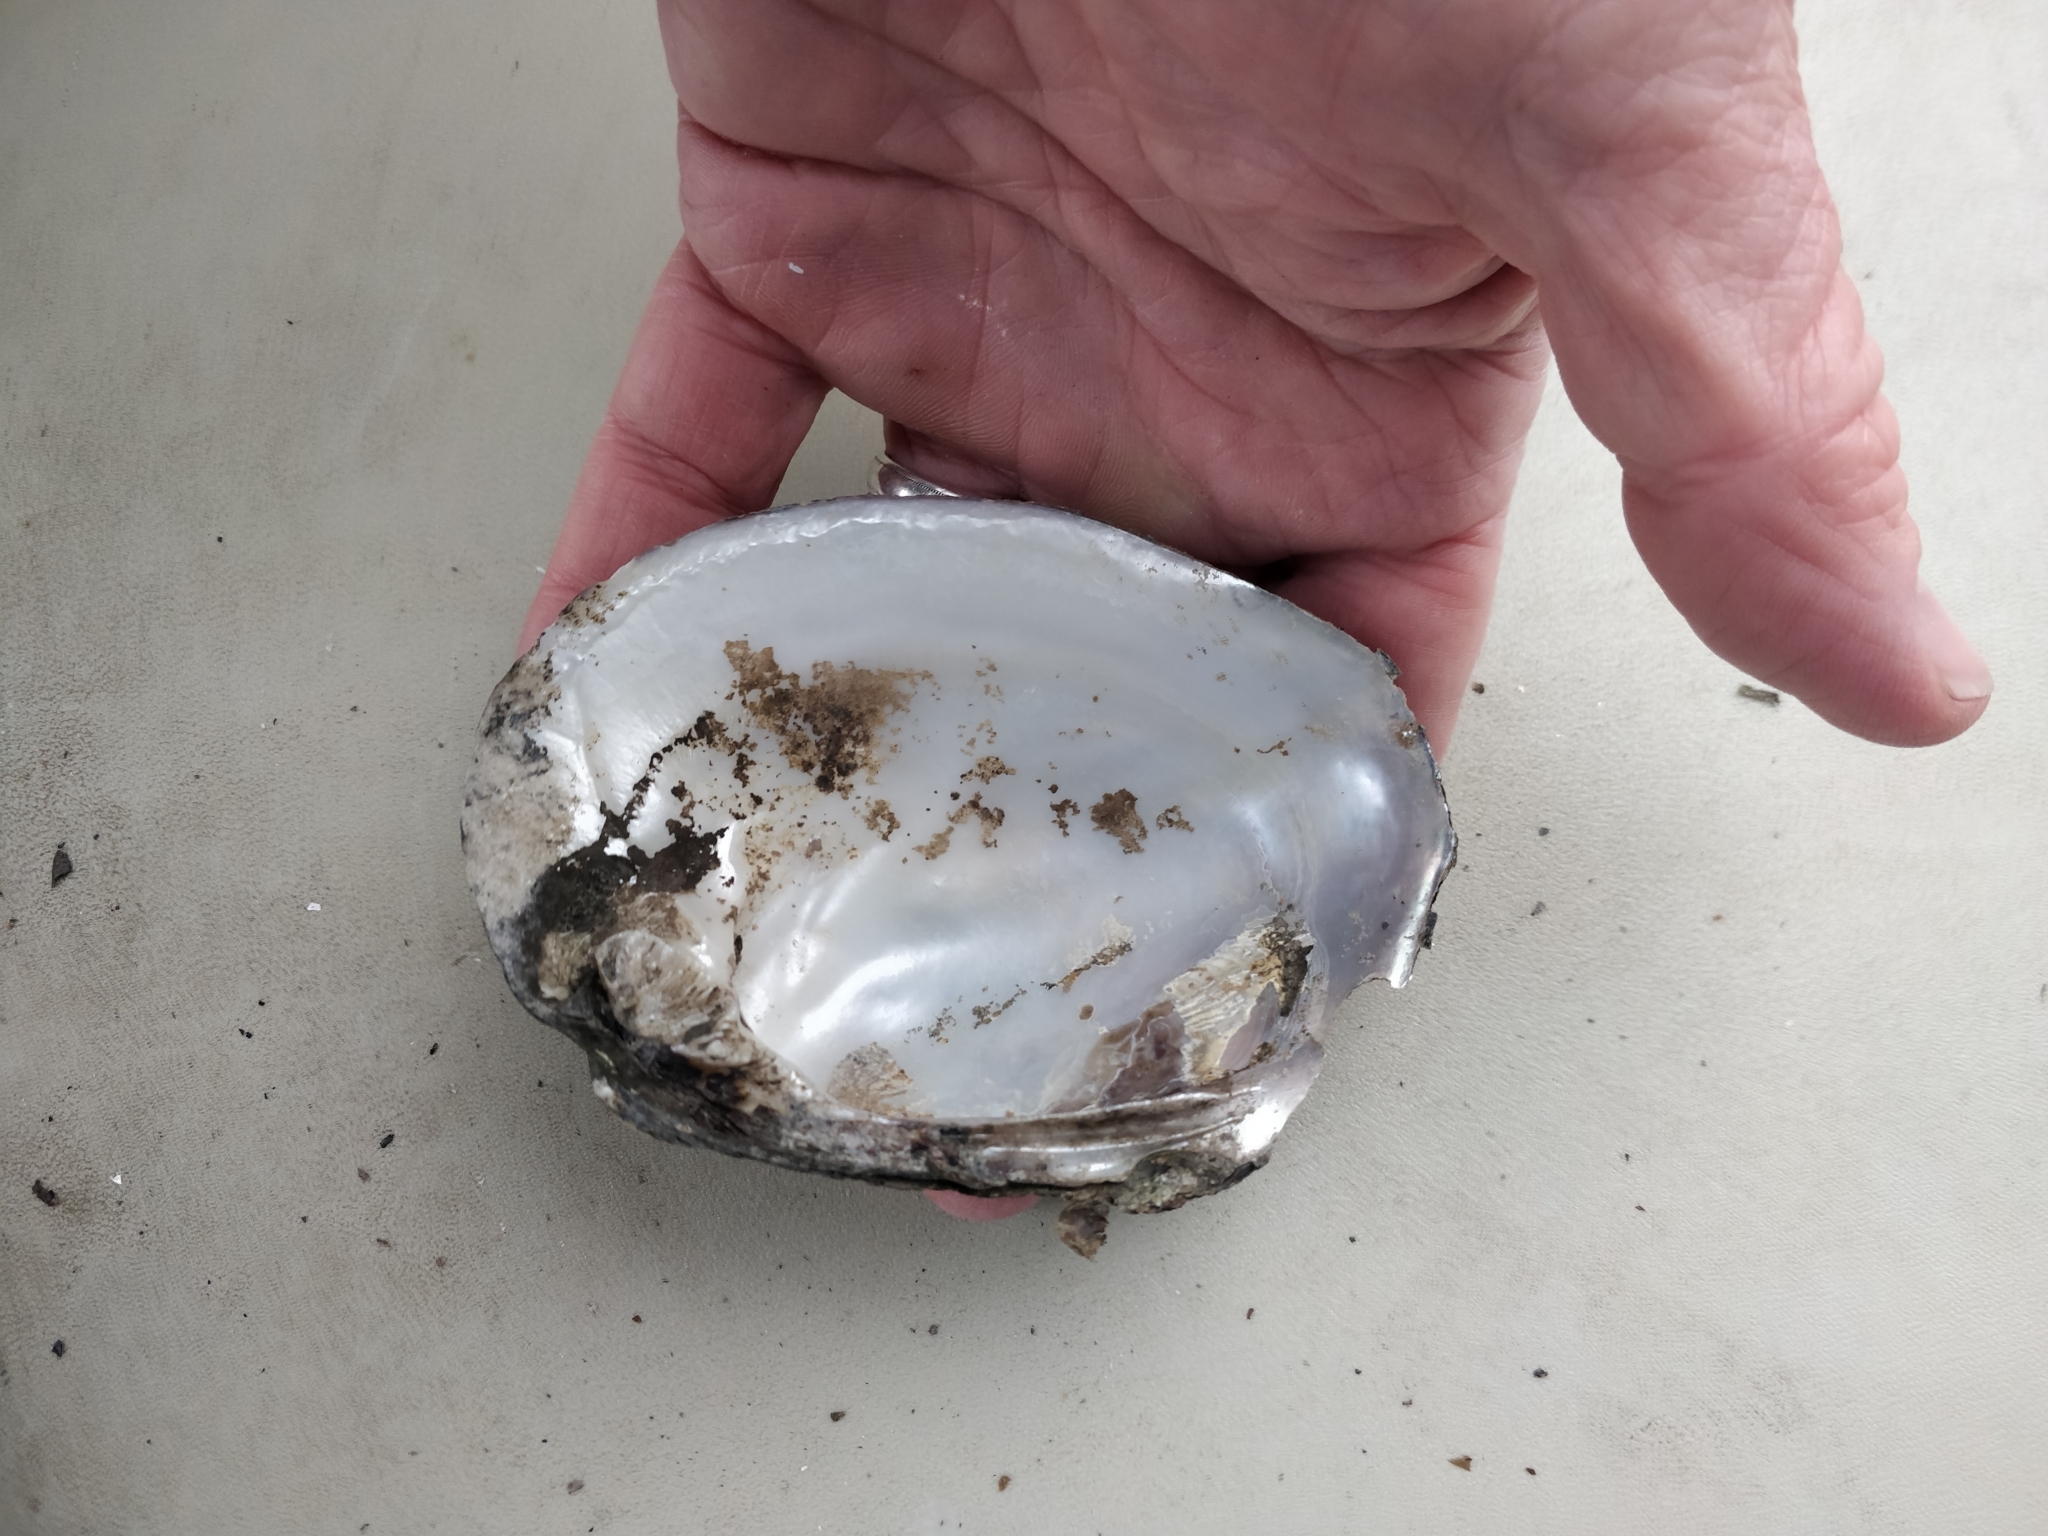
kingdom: Animalia
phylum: Mollusca
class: Bivalvia
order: Unionida
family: Unionidae
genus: Amblema
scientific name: Amblema plicata
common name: Threeridge
